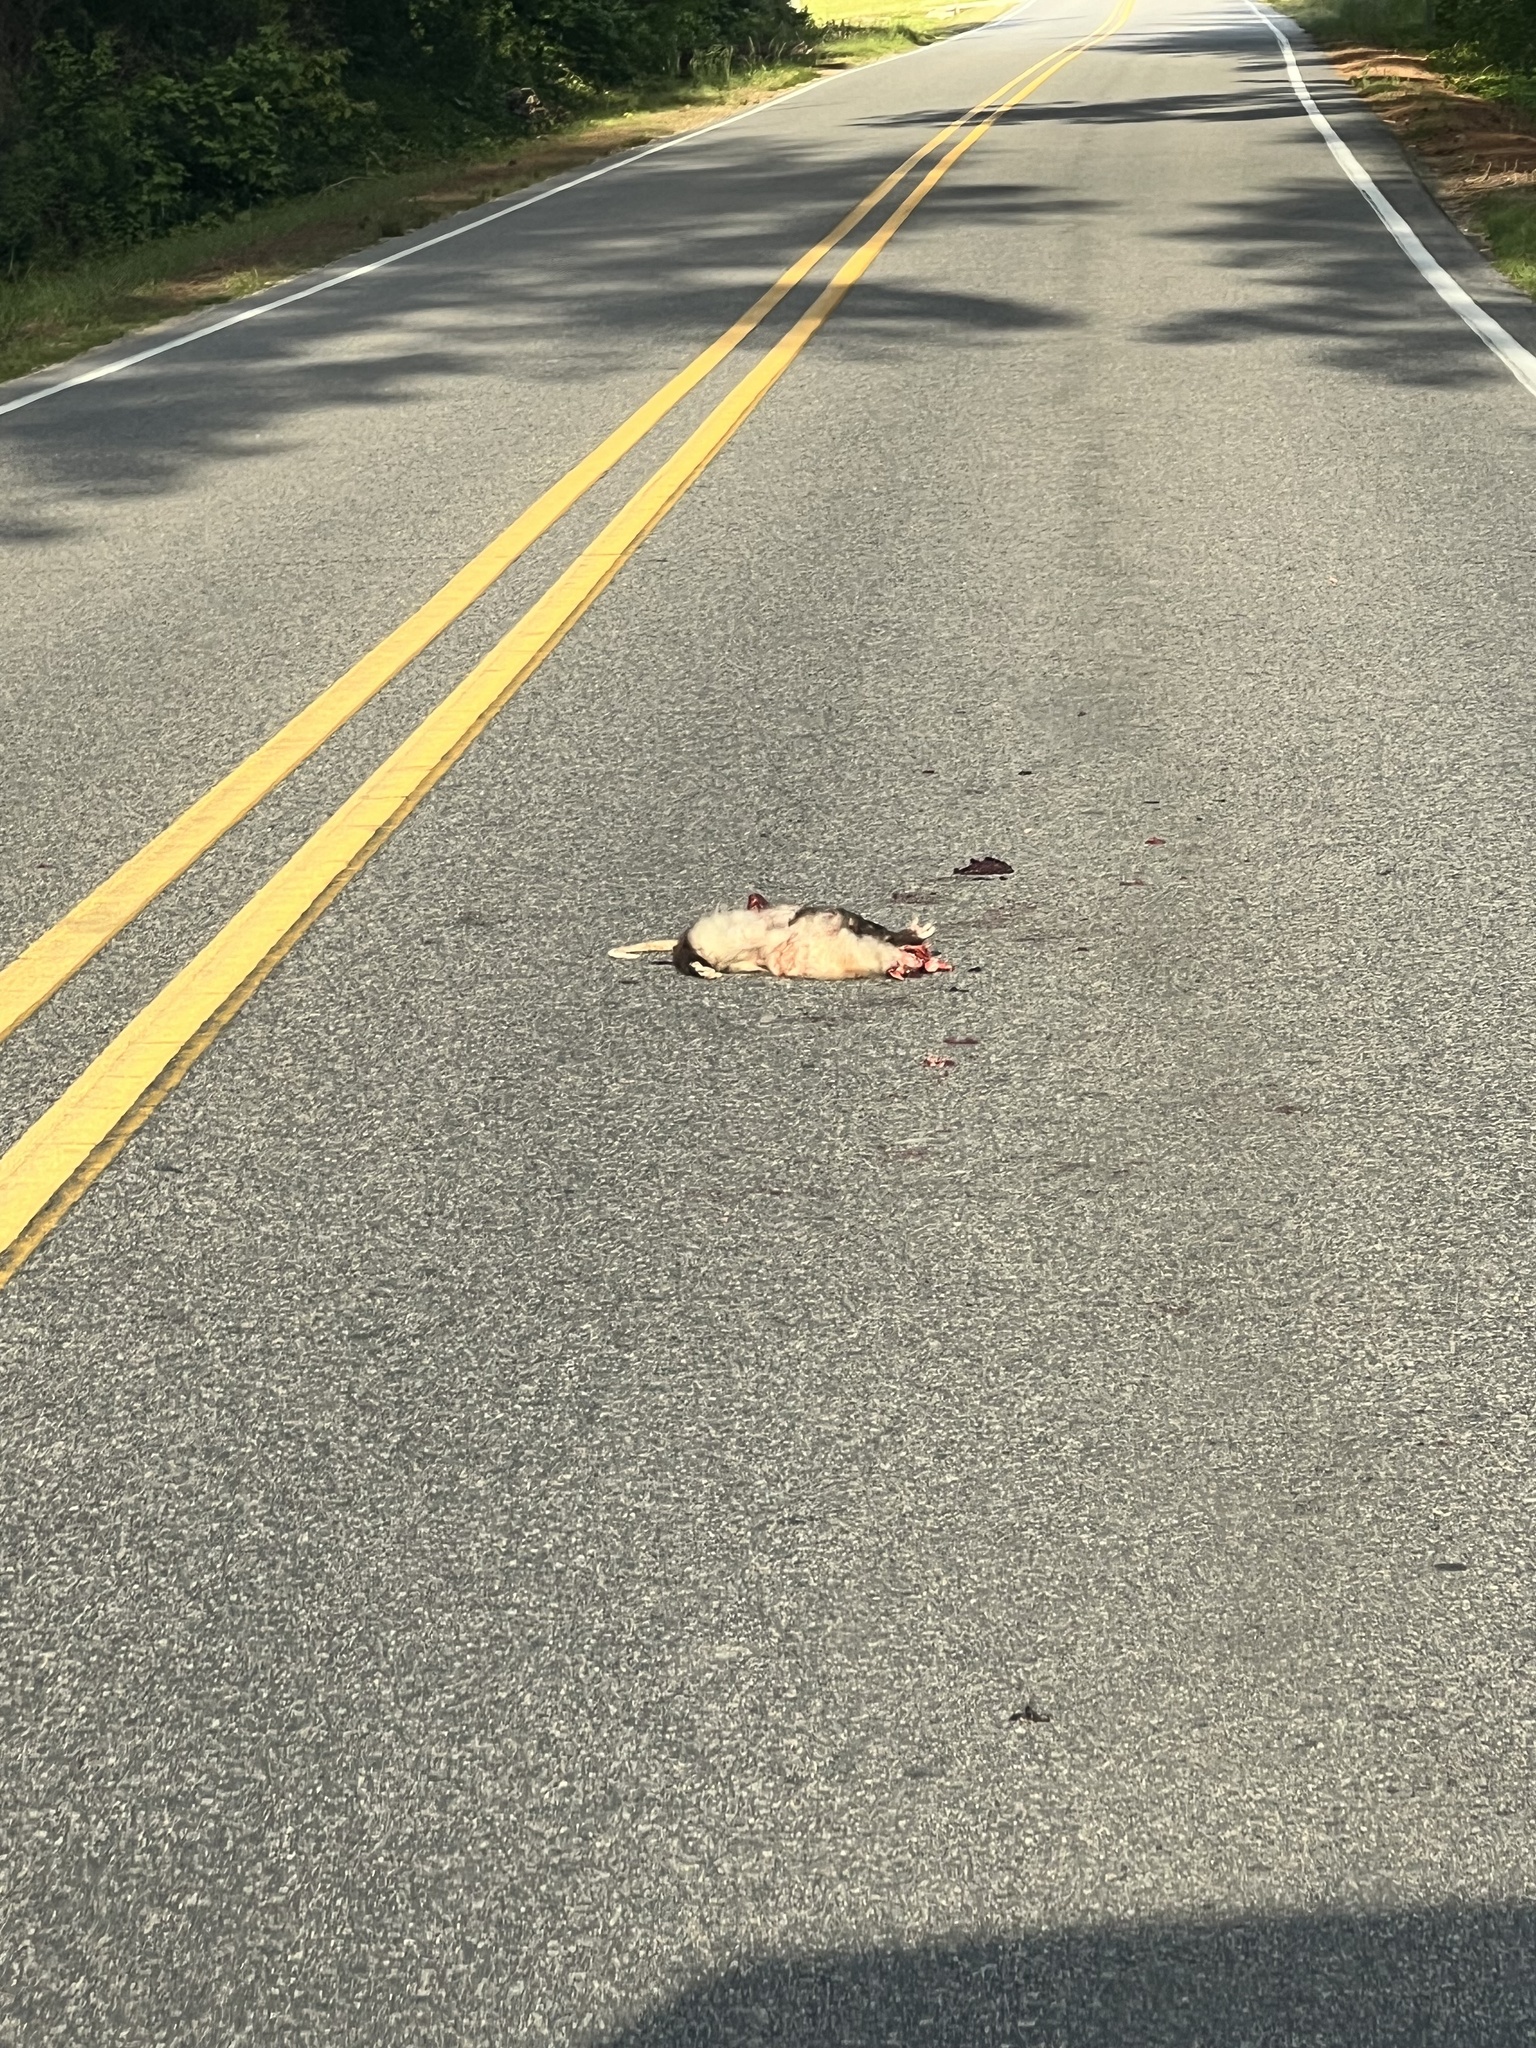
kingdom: Animalia
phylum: Chordata
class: Mammalia
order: Didelphimorphia
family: Didelphidae
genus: Didelphis
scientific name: Didelphis virginiana
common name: Virginia opossum
